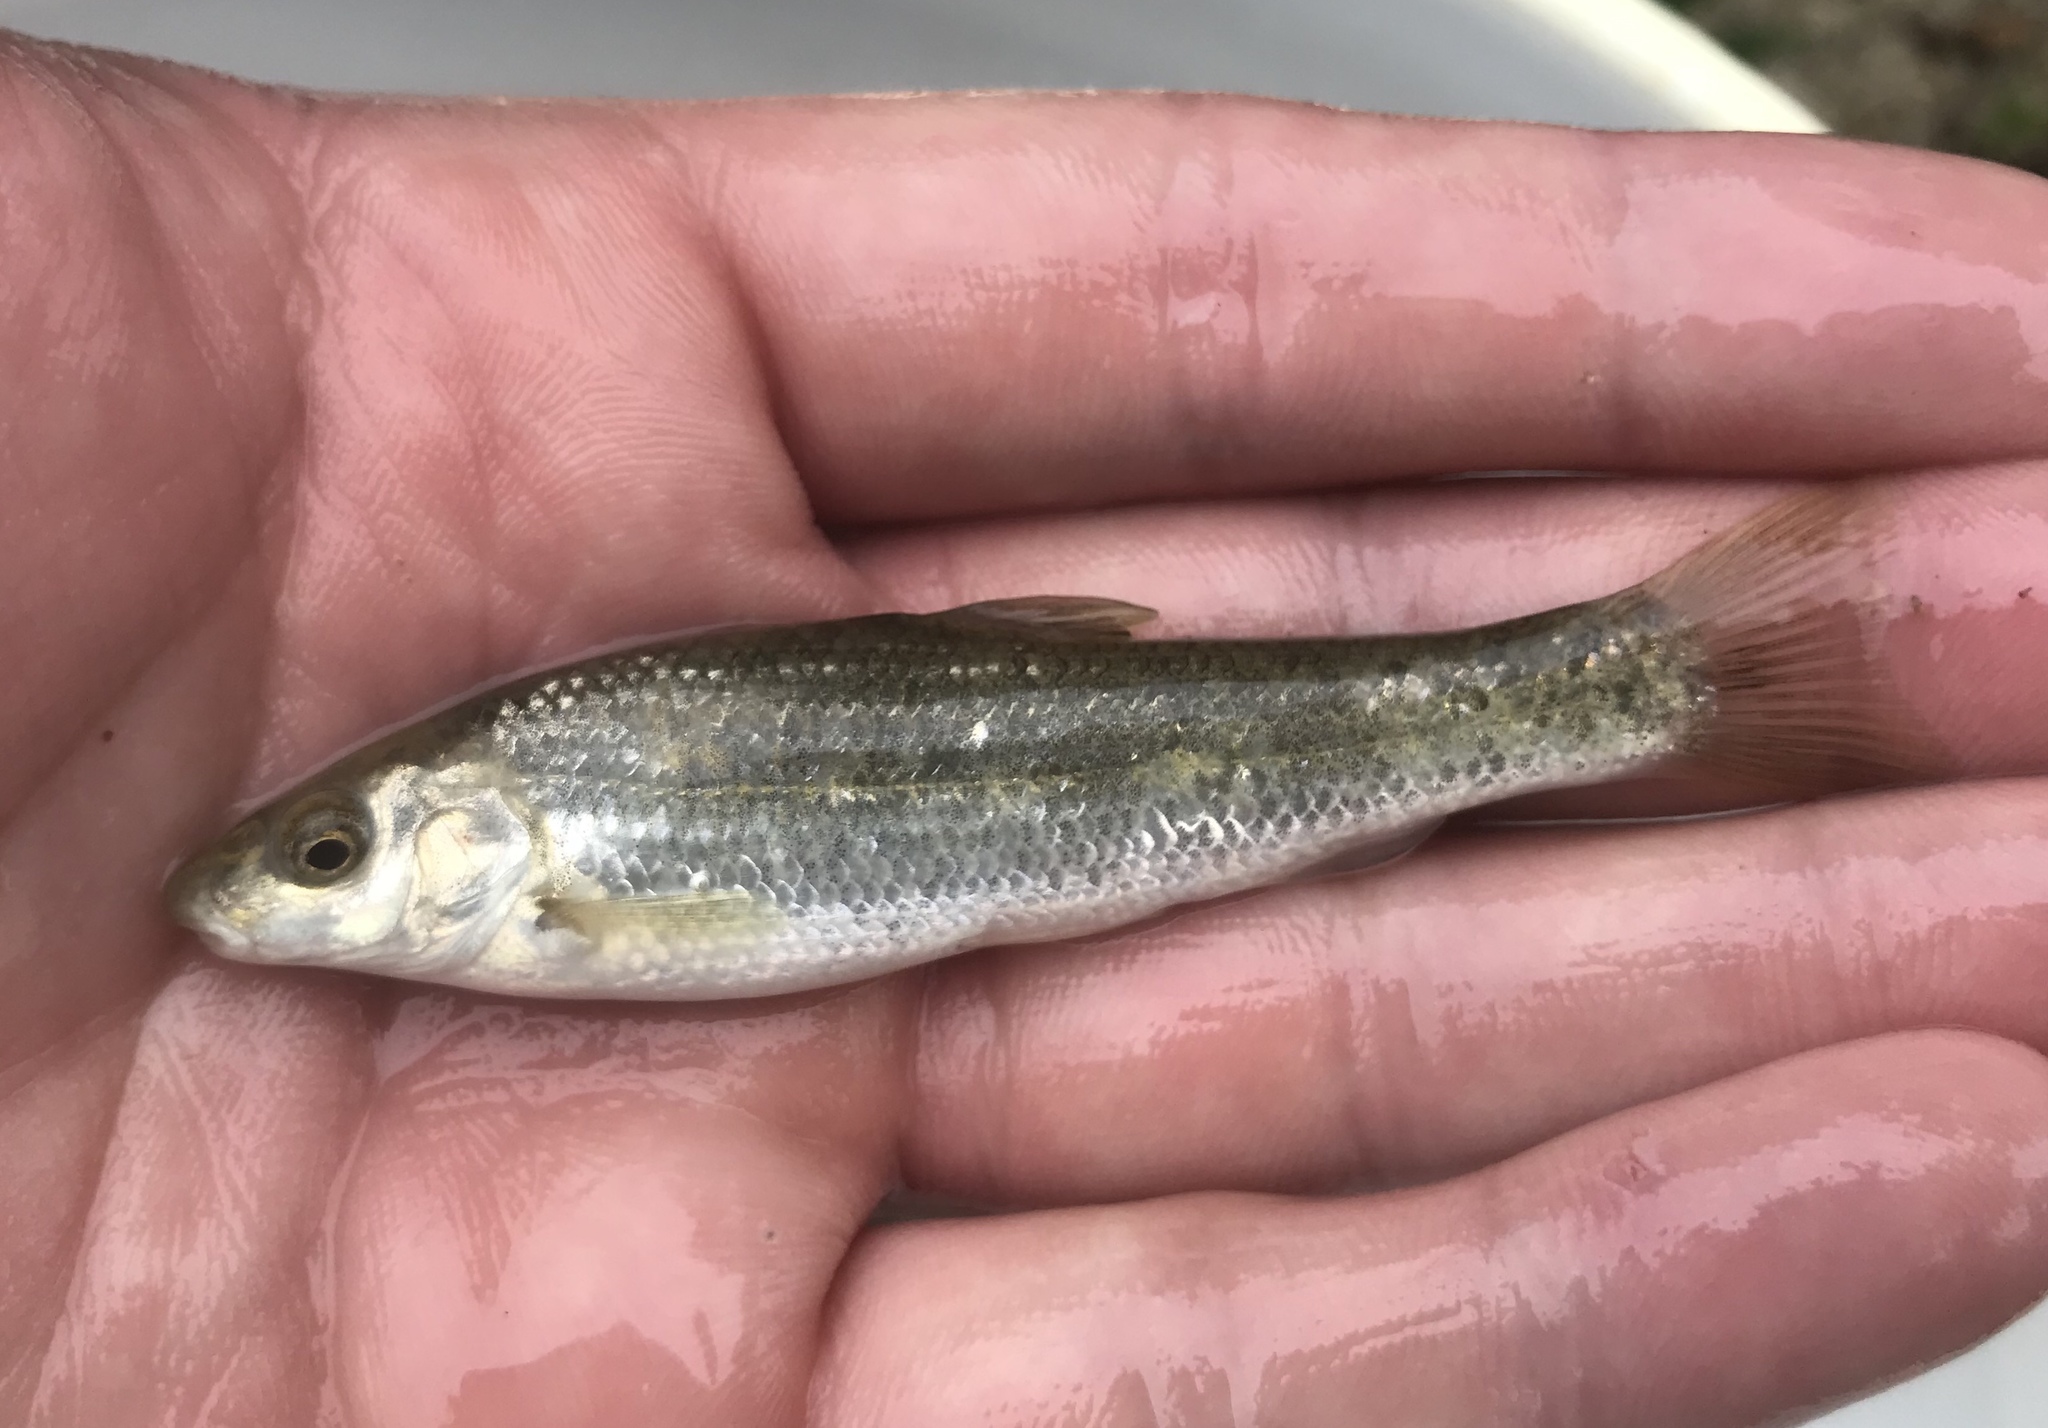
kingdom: Animalia
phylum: Chordata
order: Cypriniformes
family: Cyprinidae
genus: Campostoma
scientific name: Campostoma anomalum
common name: Central stoneroller
